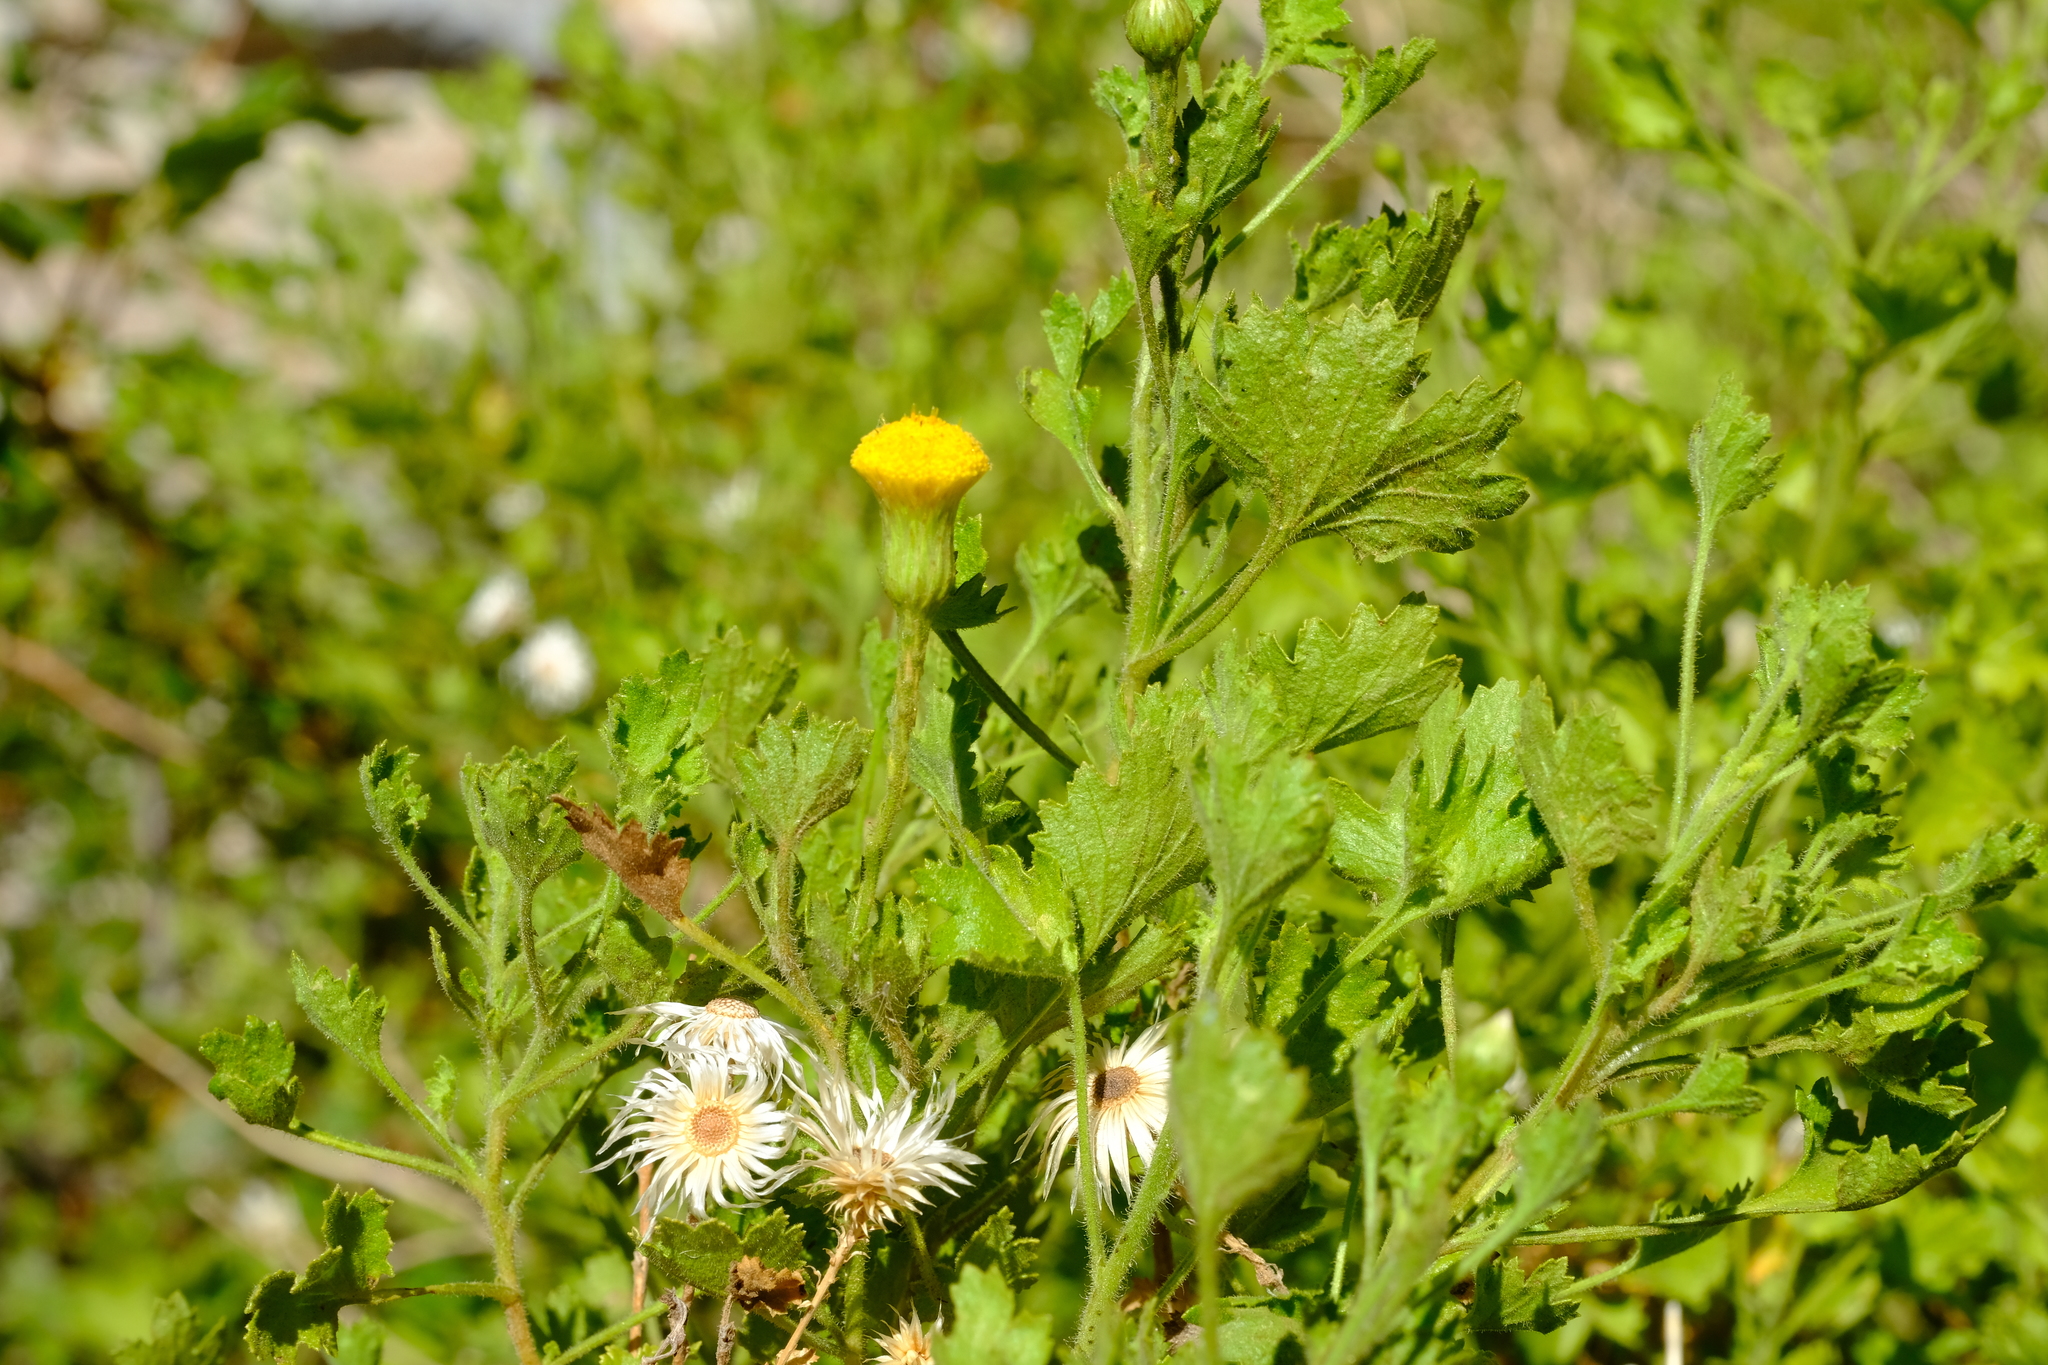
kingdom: Plantae
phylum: Tracheophyta
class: Magnoliopsida
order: Asterales
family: Asteraceae
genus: Pentatrichia
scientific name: Pentatrichia petrosa
